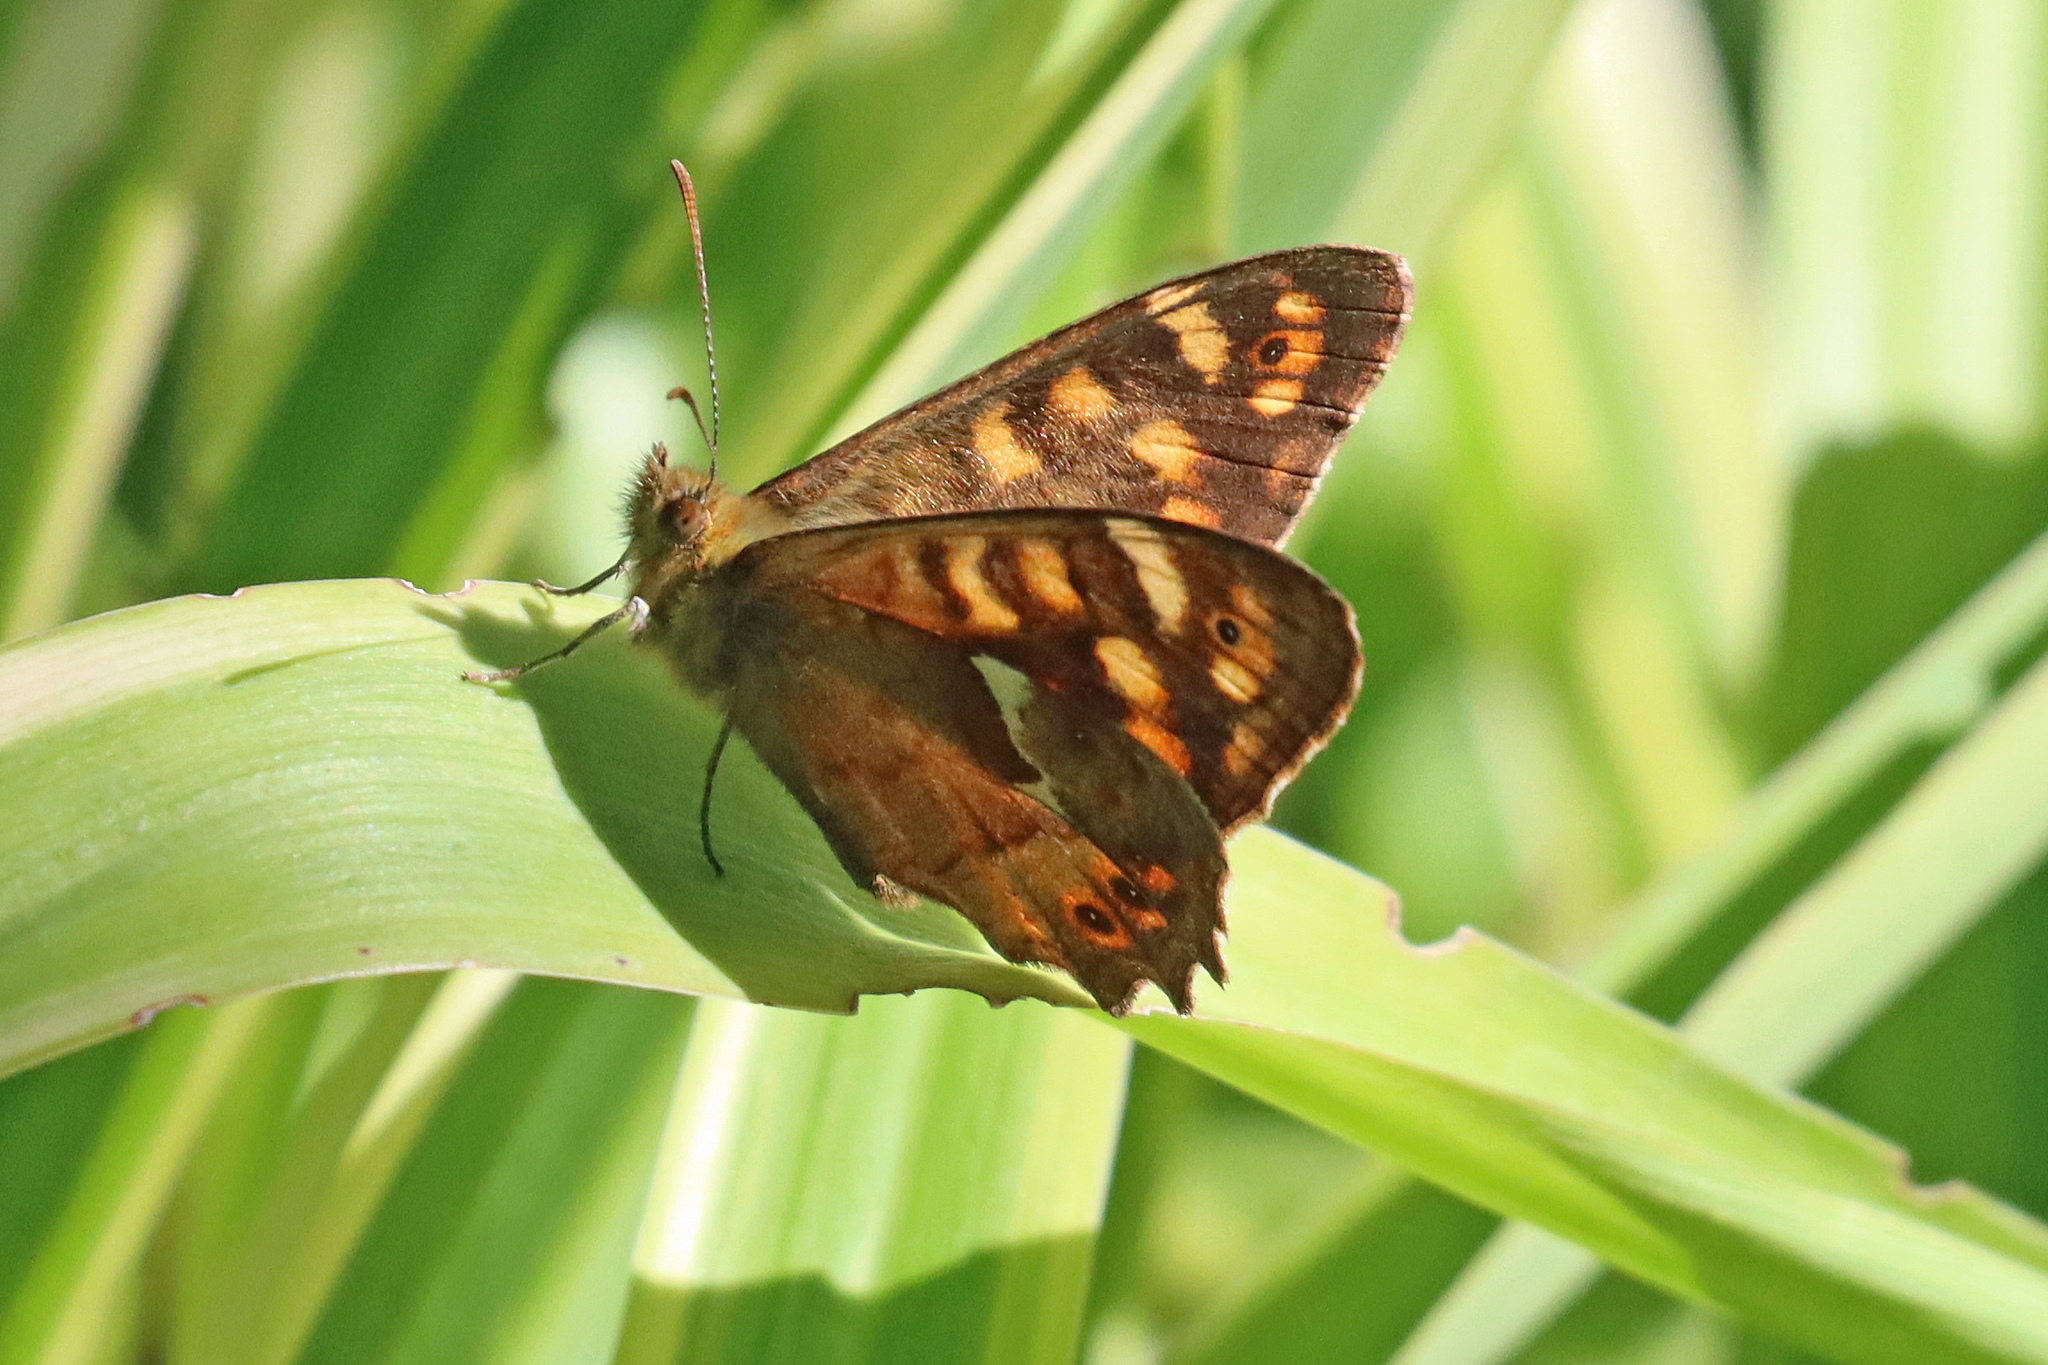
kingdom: Animalia
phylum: Arthropoda
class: Insecta
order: Lepidoptera
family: Nymphalidae
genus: Pararge
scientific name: Pararge aegeria
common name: Speckled wood
